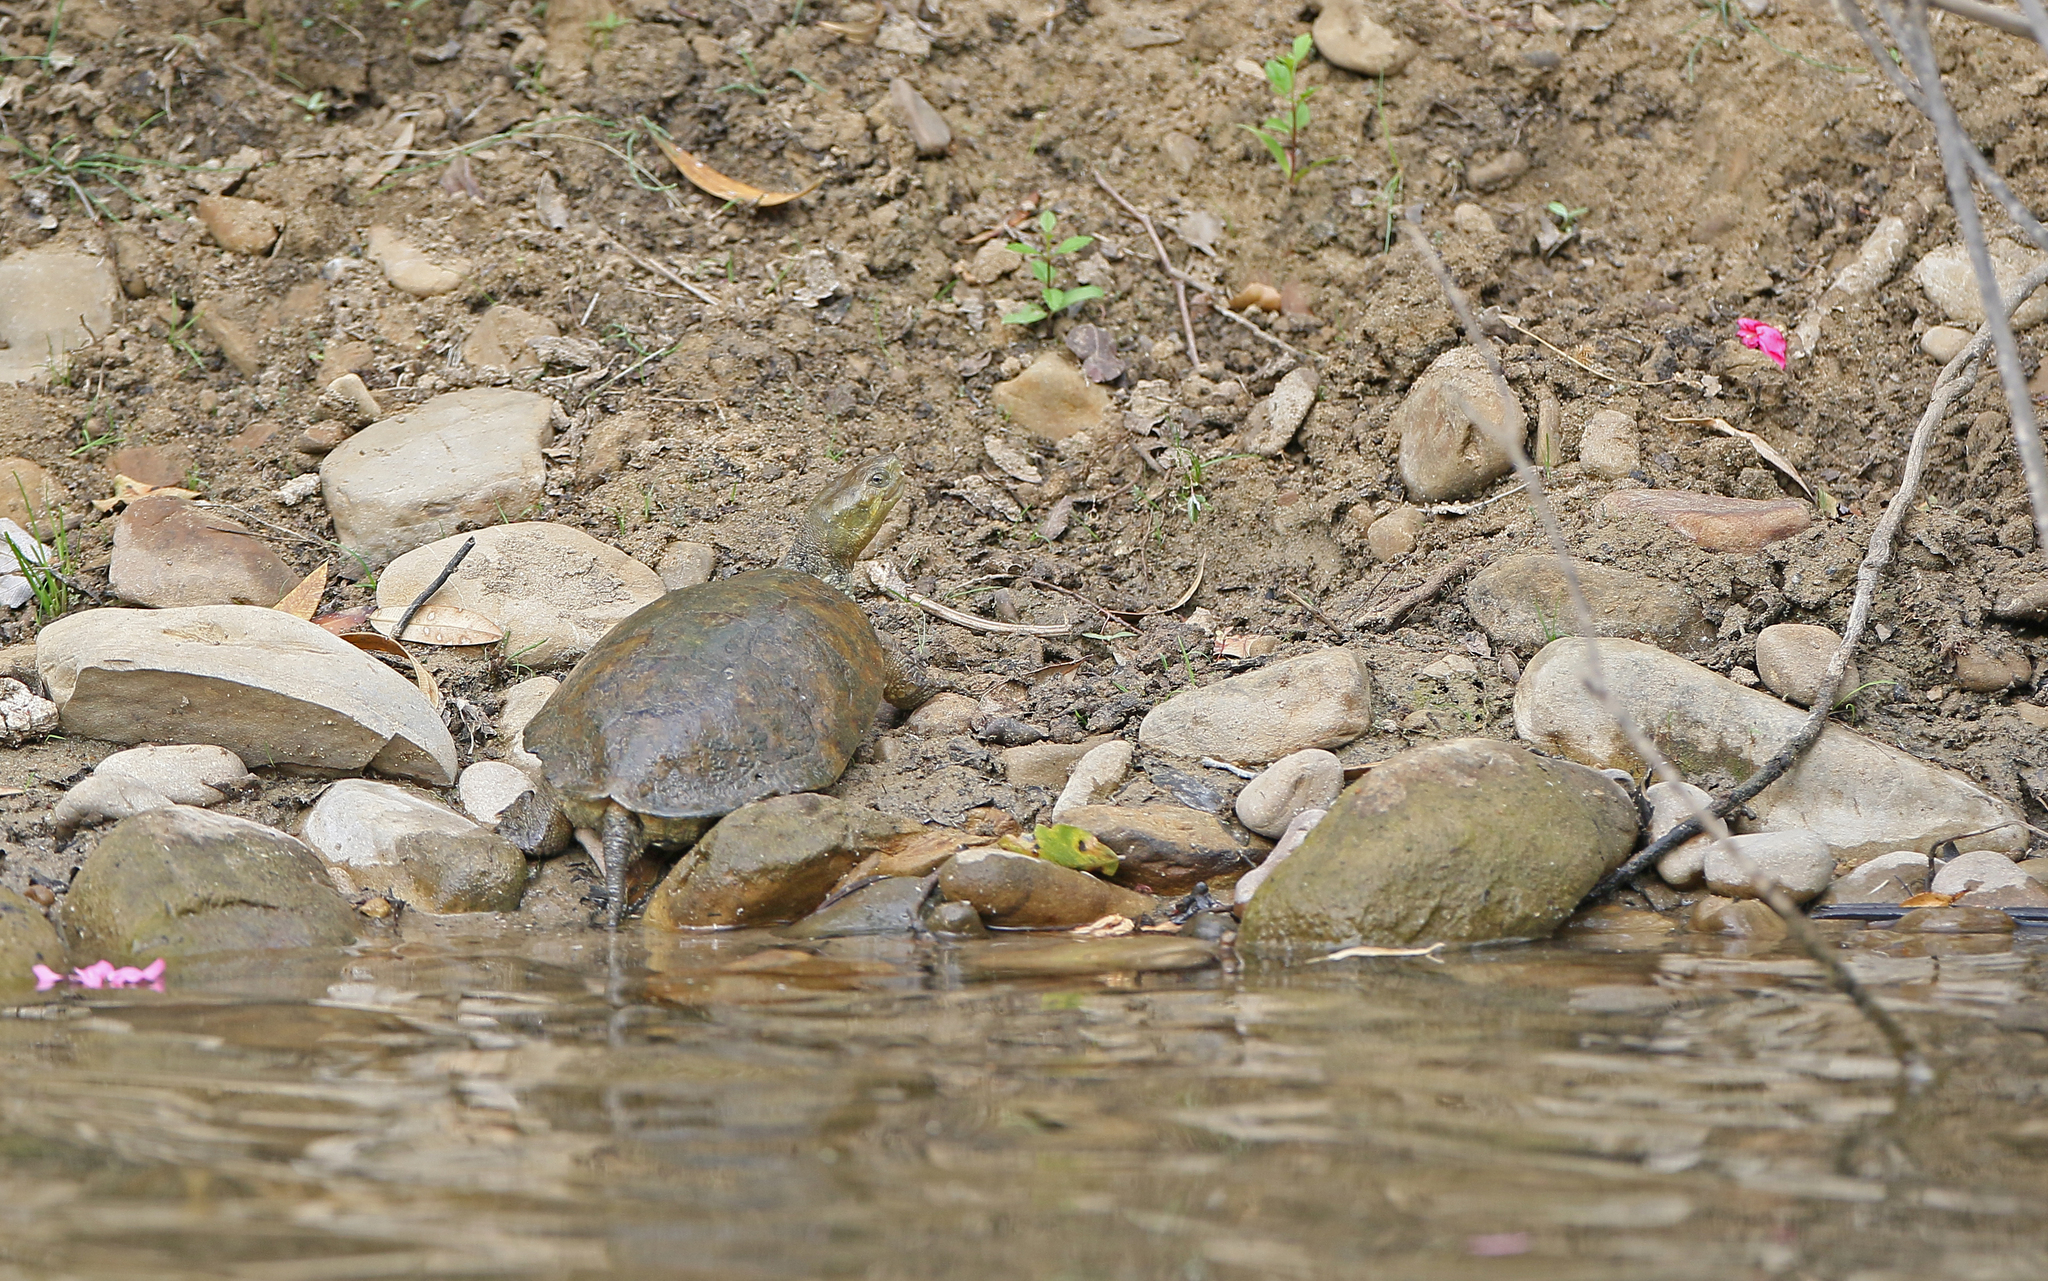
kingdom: Animalia
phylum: Chordata
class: Testudines
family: Geoemydidae
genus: Mauremys
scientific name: Mauremys leprosa
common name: Mediterranean pond turtle
